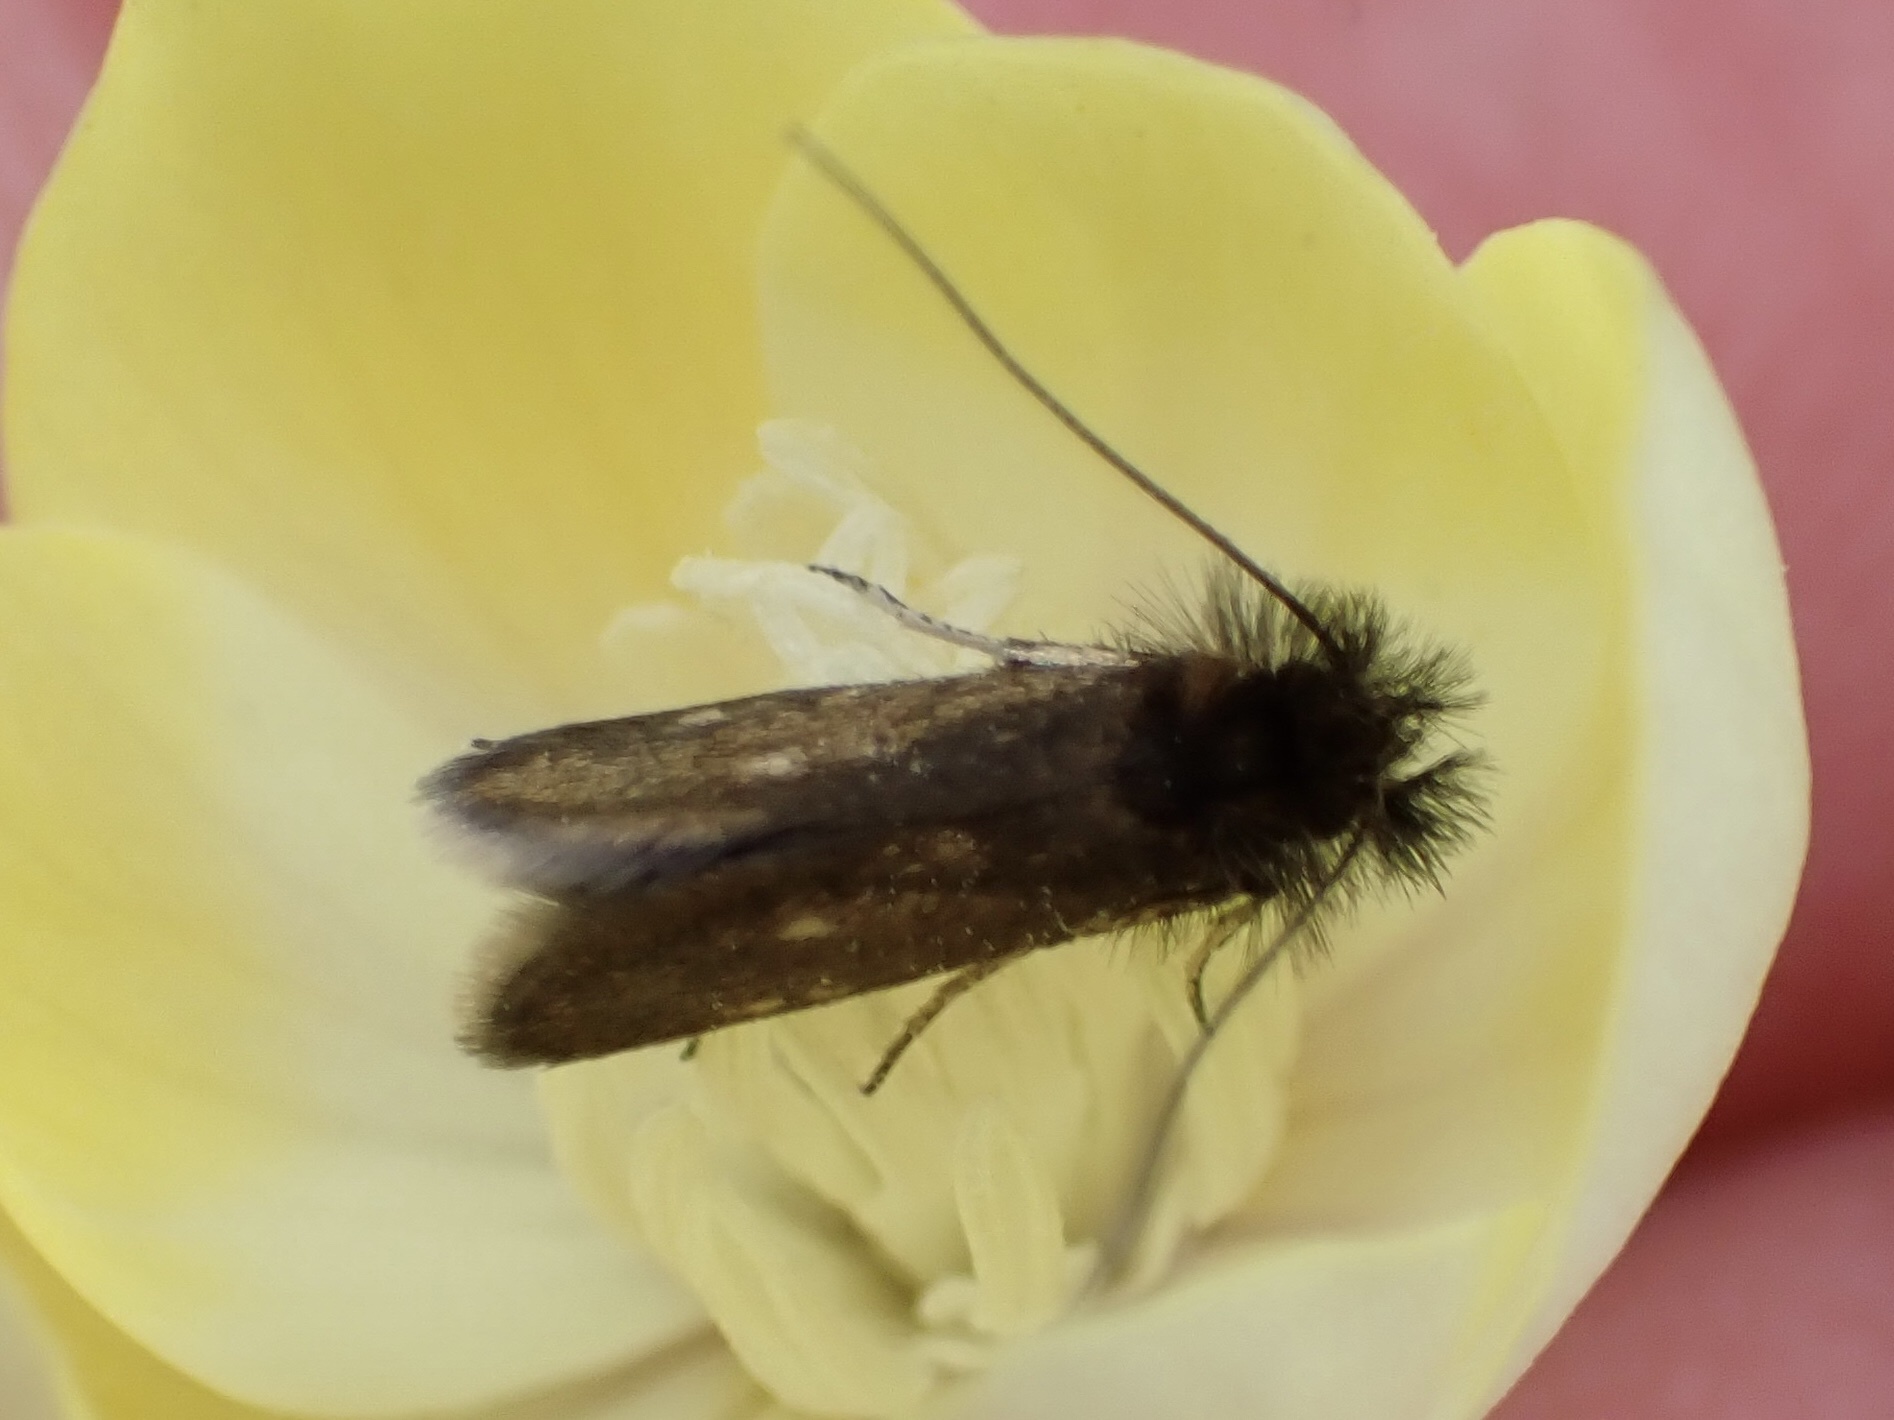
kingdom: Animalia
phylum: Arthropoda
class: Insecta
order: Lepidoptera
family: Adelidae
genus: Adela
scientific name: Adela oplerella
